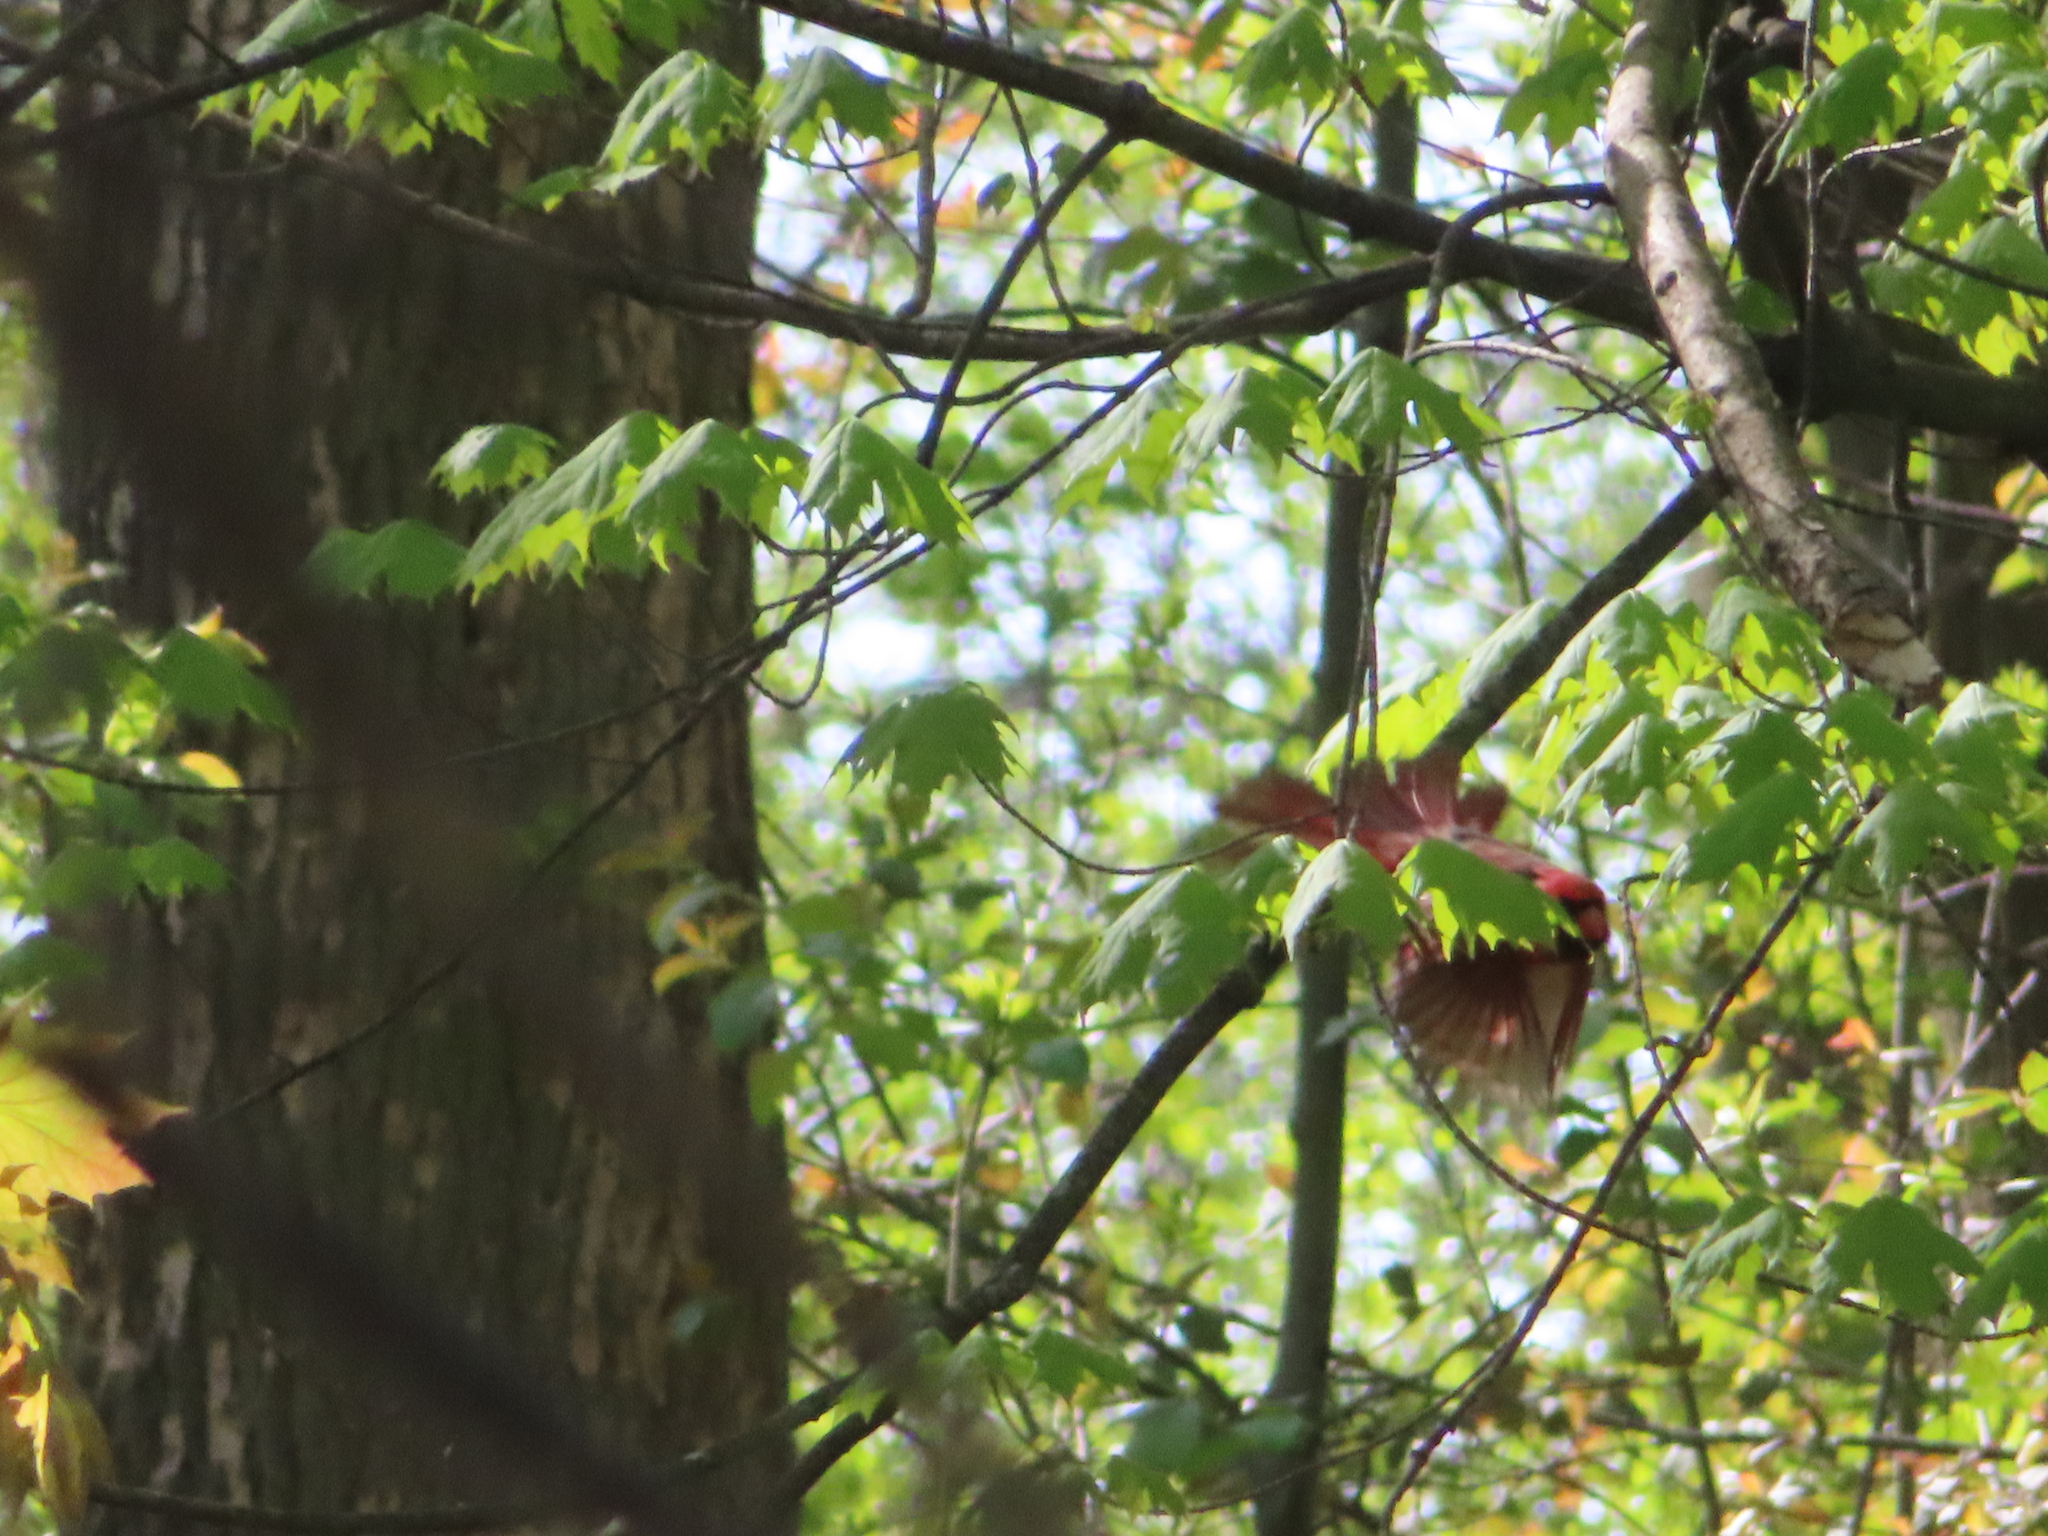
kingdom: Animalia
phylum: Chordata
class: Aves
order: Passeriformes
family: Cardinalidae
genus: Cardinalis
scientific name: Cardinalis cardinalis
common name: Northern cardinal
